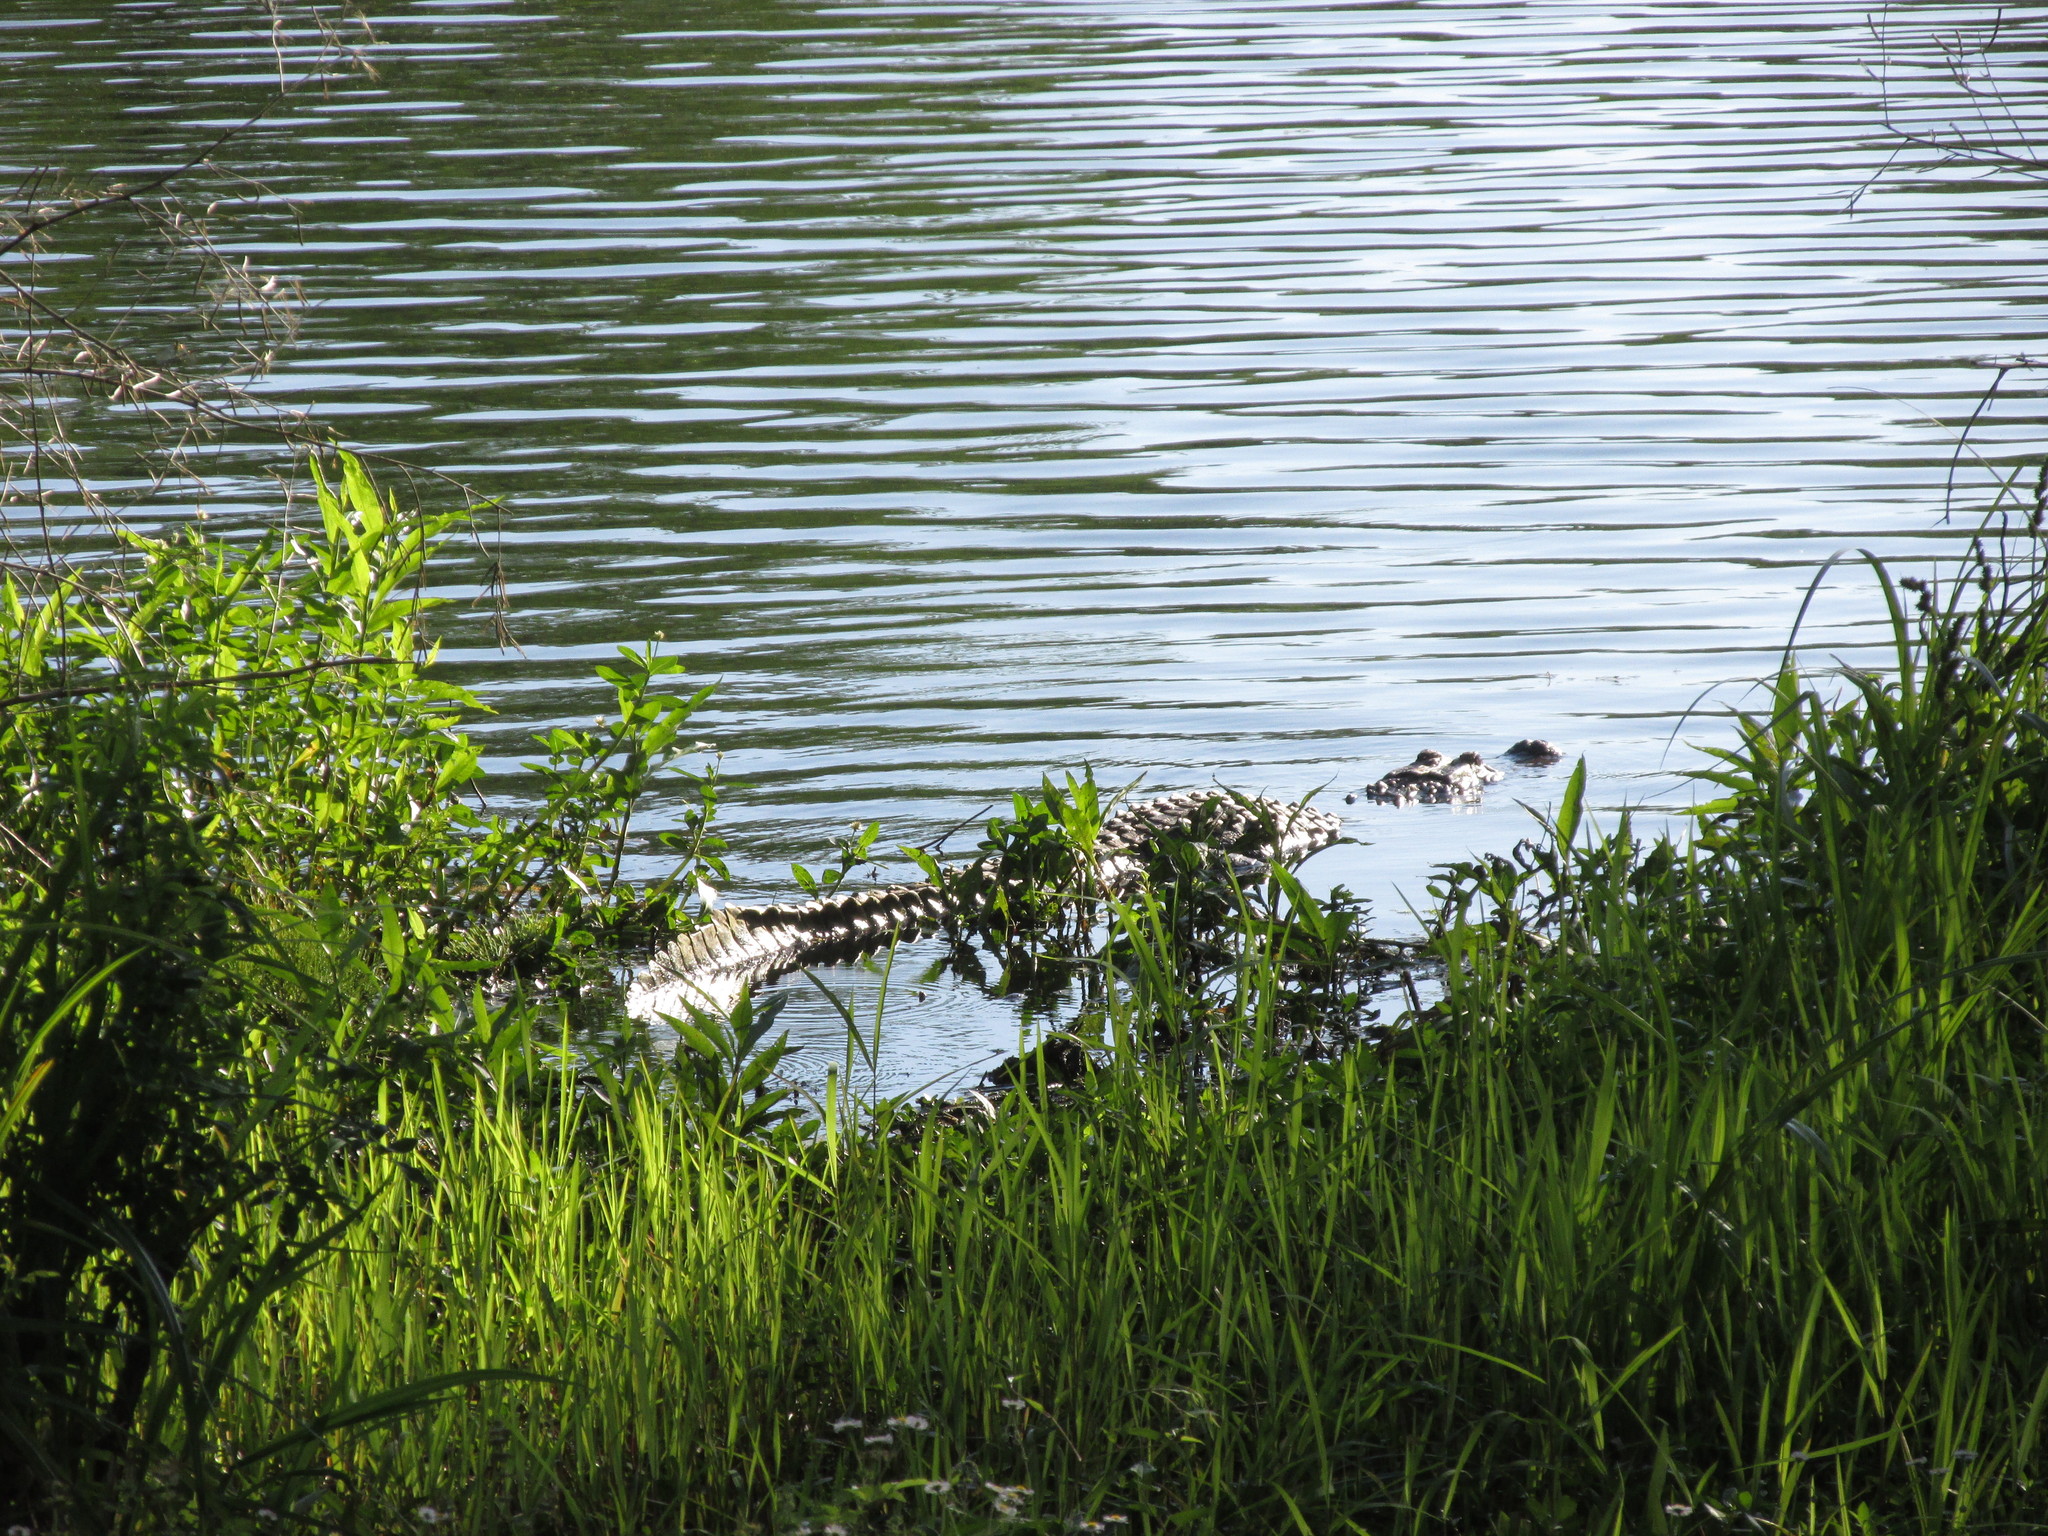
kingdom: Animalia
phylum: Chordata
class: Crocodylia
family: Alligatoridae
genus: Alligator
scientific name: Alligator mississippiensis
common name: American alligator
